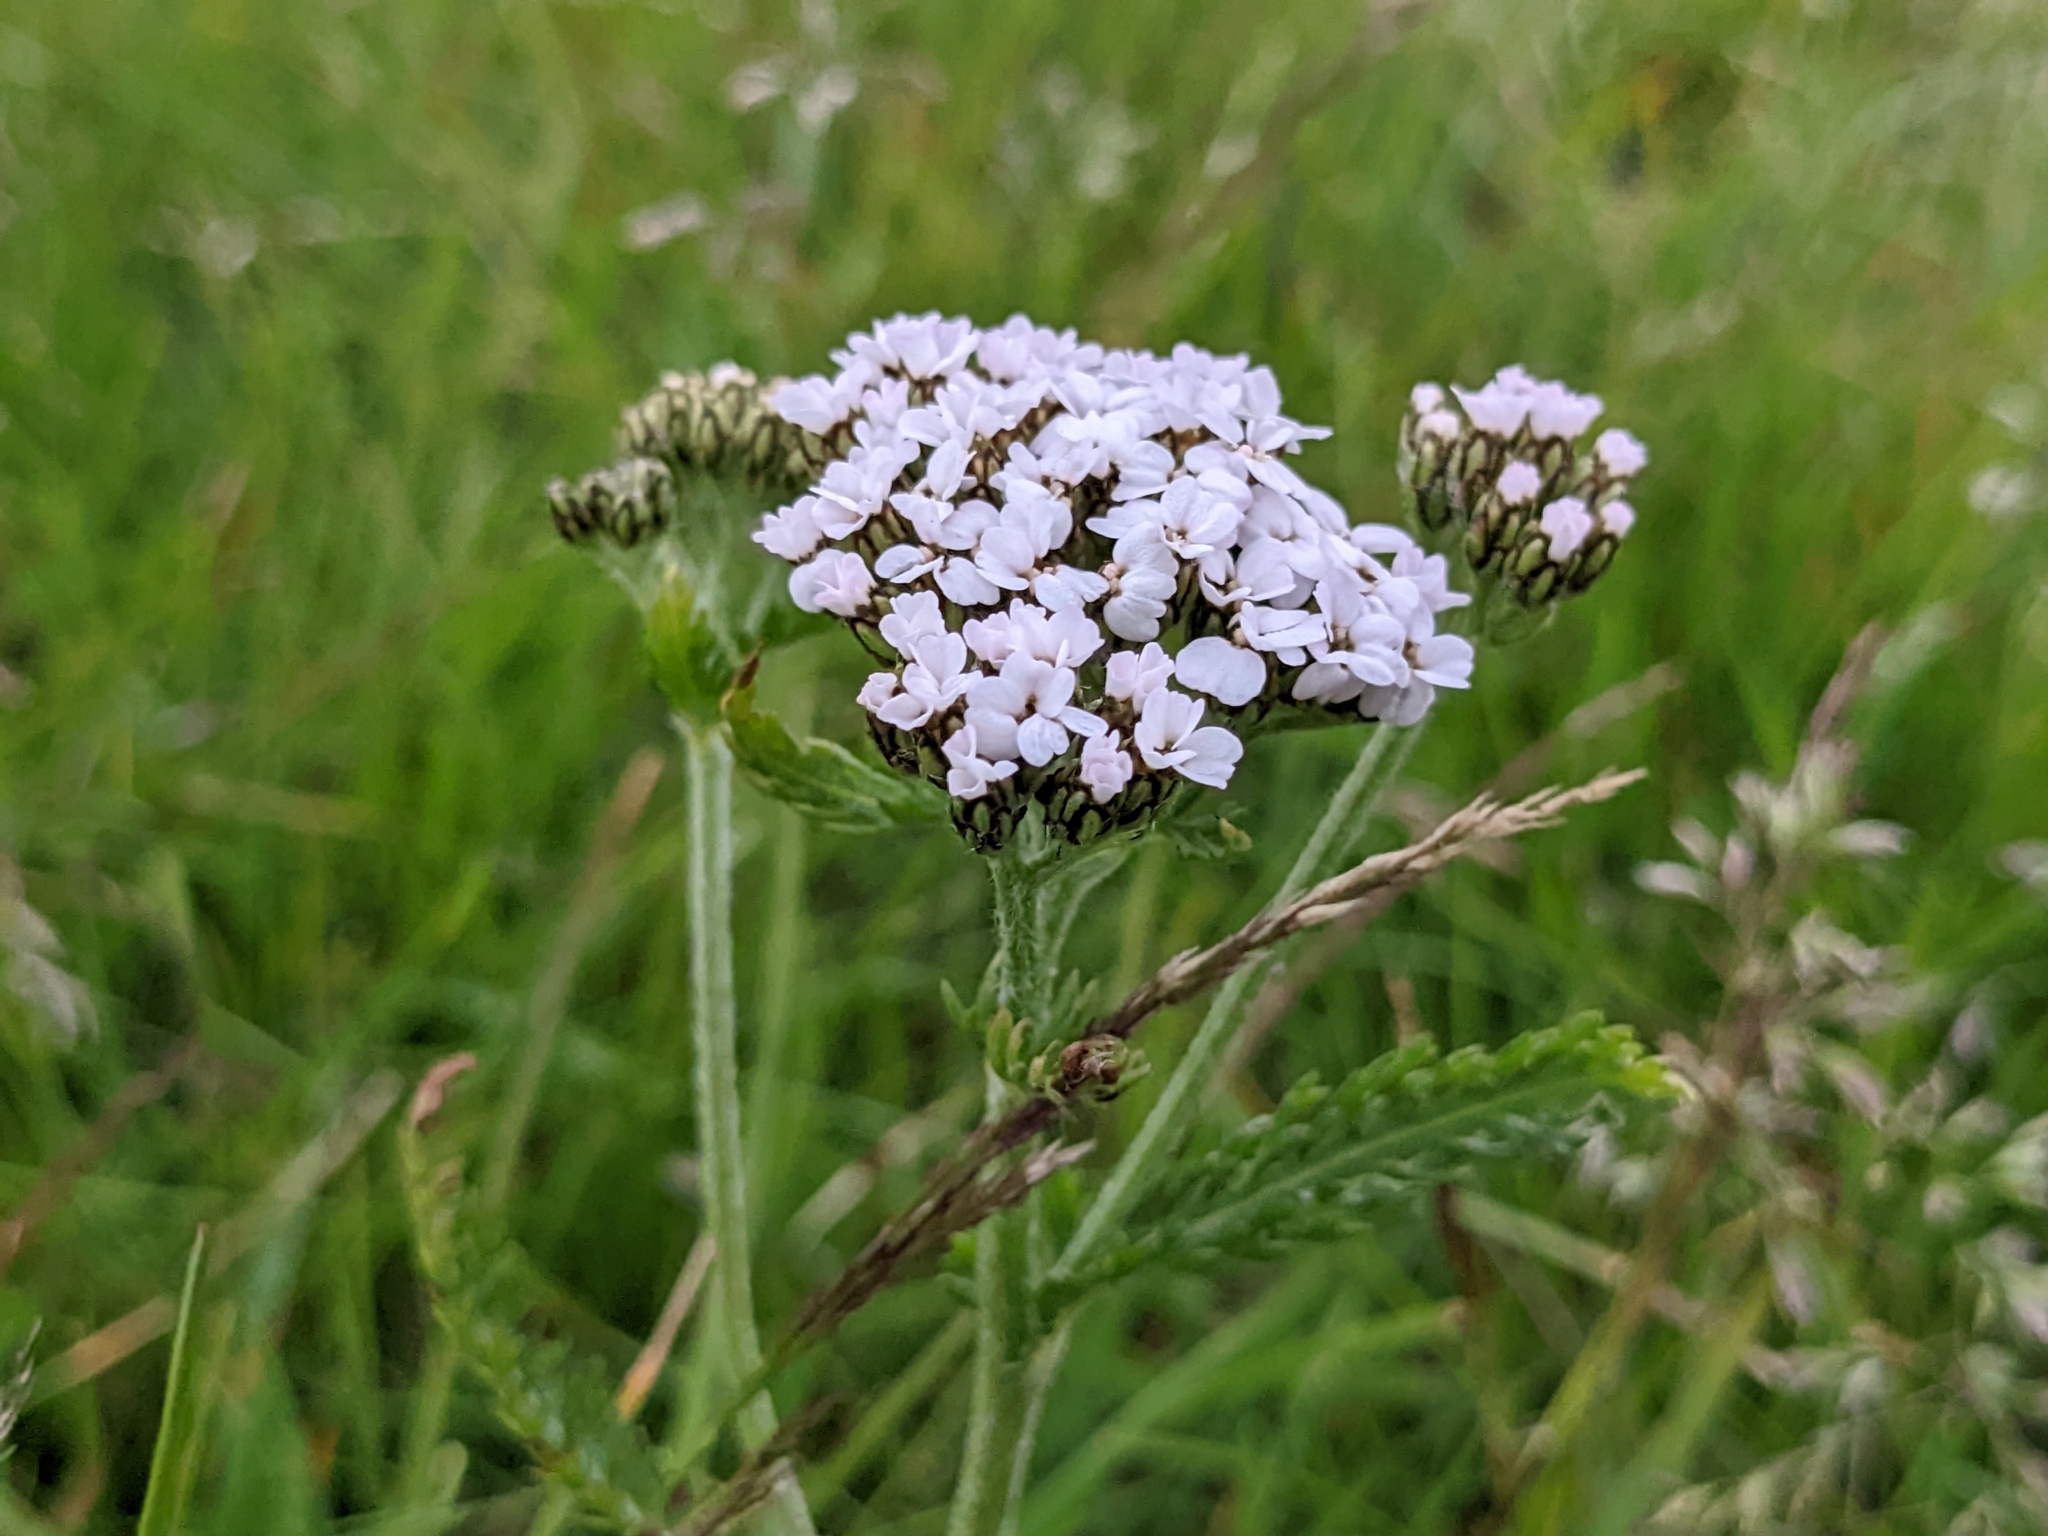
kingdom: Plantae
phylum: Tracheophyta
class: Magnoliopsida
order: Asterales
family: Asteraceae
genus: Achillea
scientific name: Achillea millefolium
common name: Yarrow
